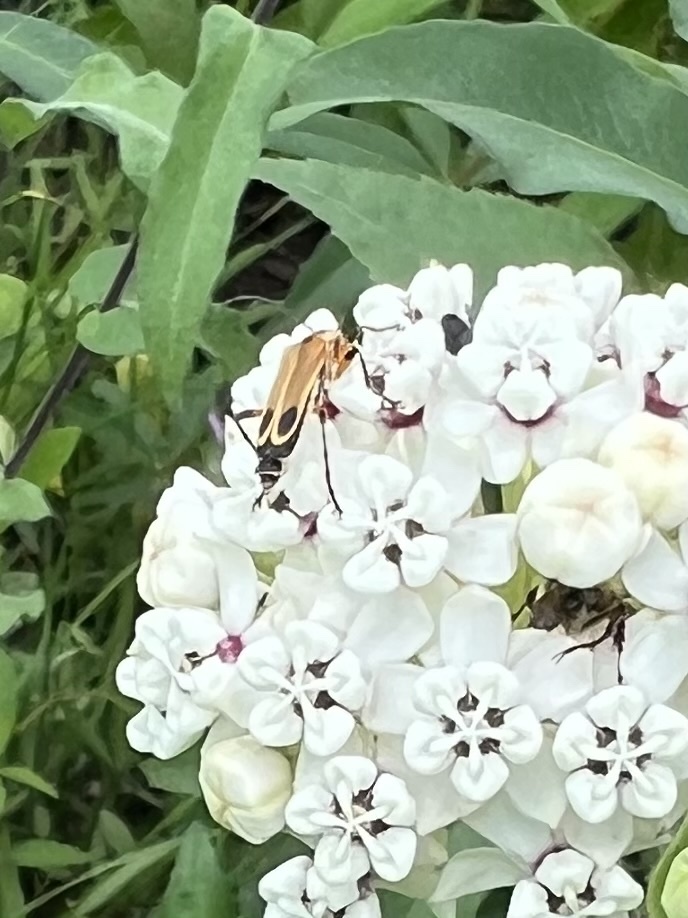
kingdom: Animalia
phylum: Arthropoda
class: Insecta
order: Coleoptera
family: Cantharidae
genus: Chauliognathus
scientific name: Chauliognathus marginatus
